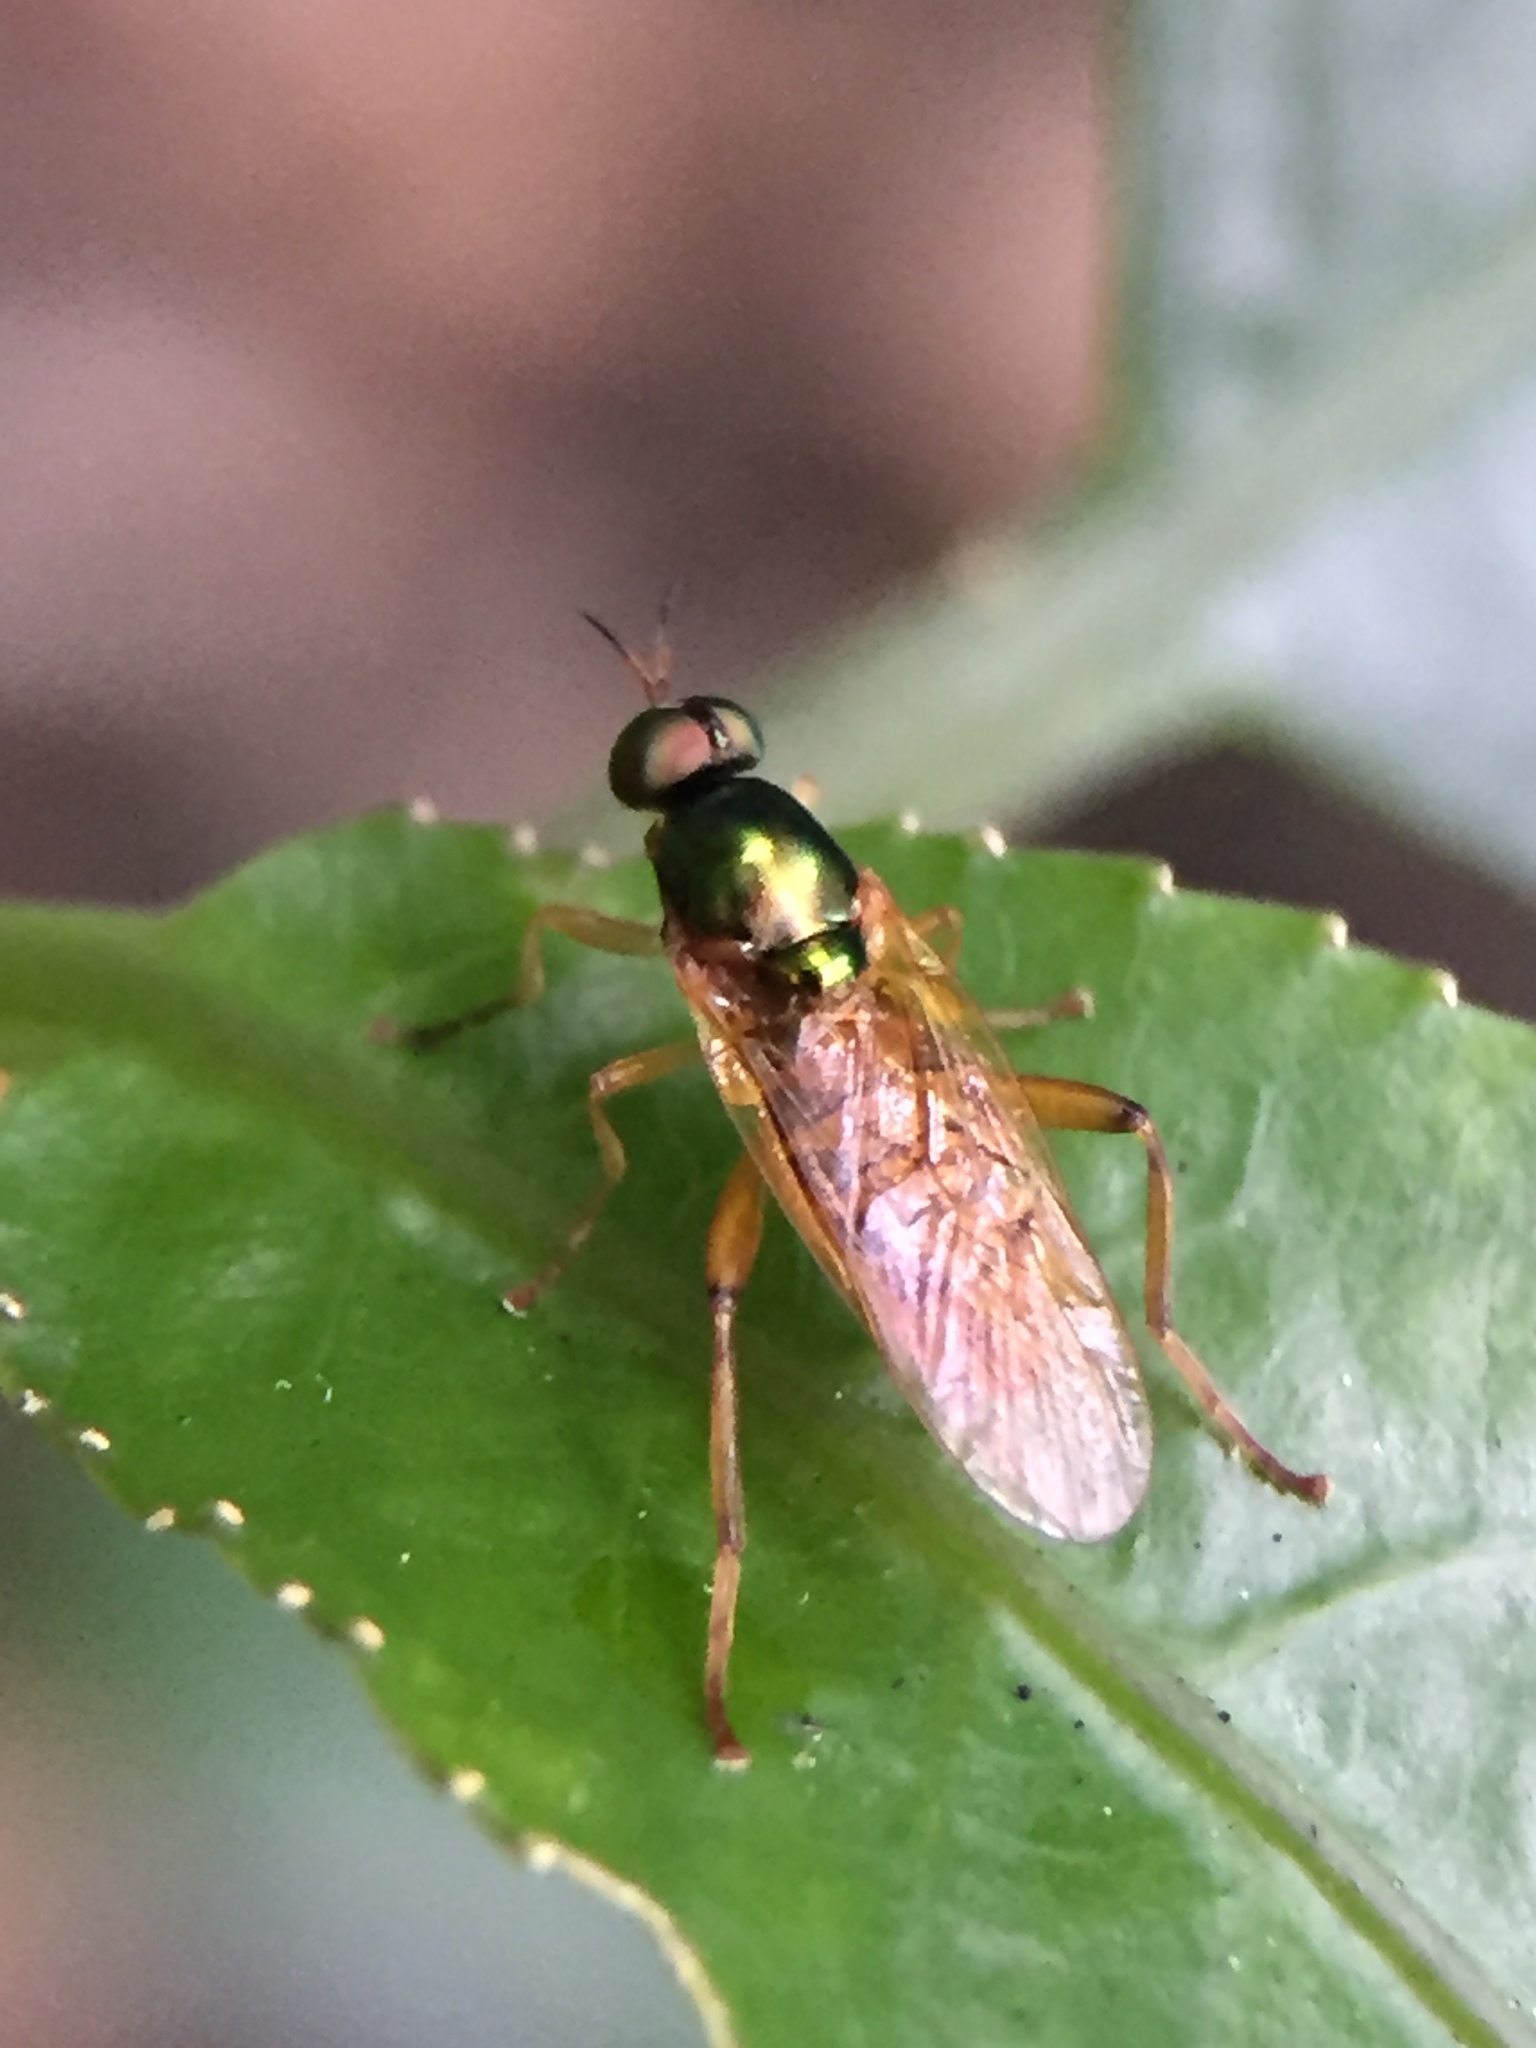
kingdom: Animalia
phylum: Arthropoda
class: Insecta
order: Diptera
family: Stratiomyidae
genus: Neactina
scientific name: Neactina opposita
